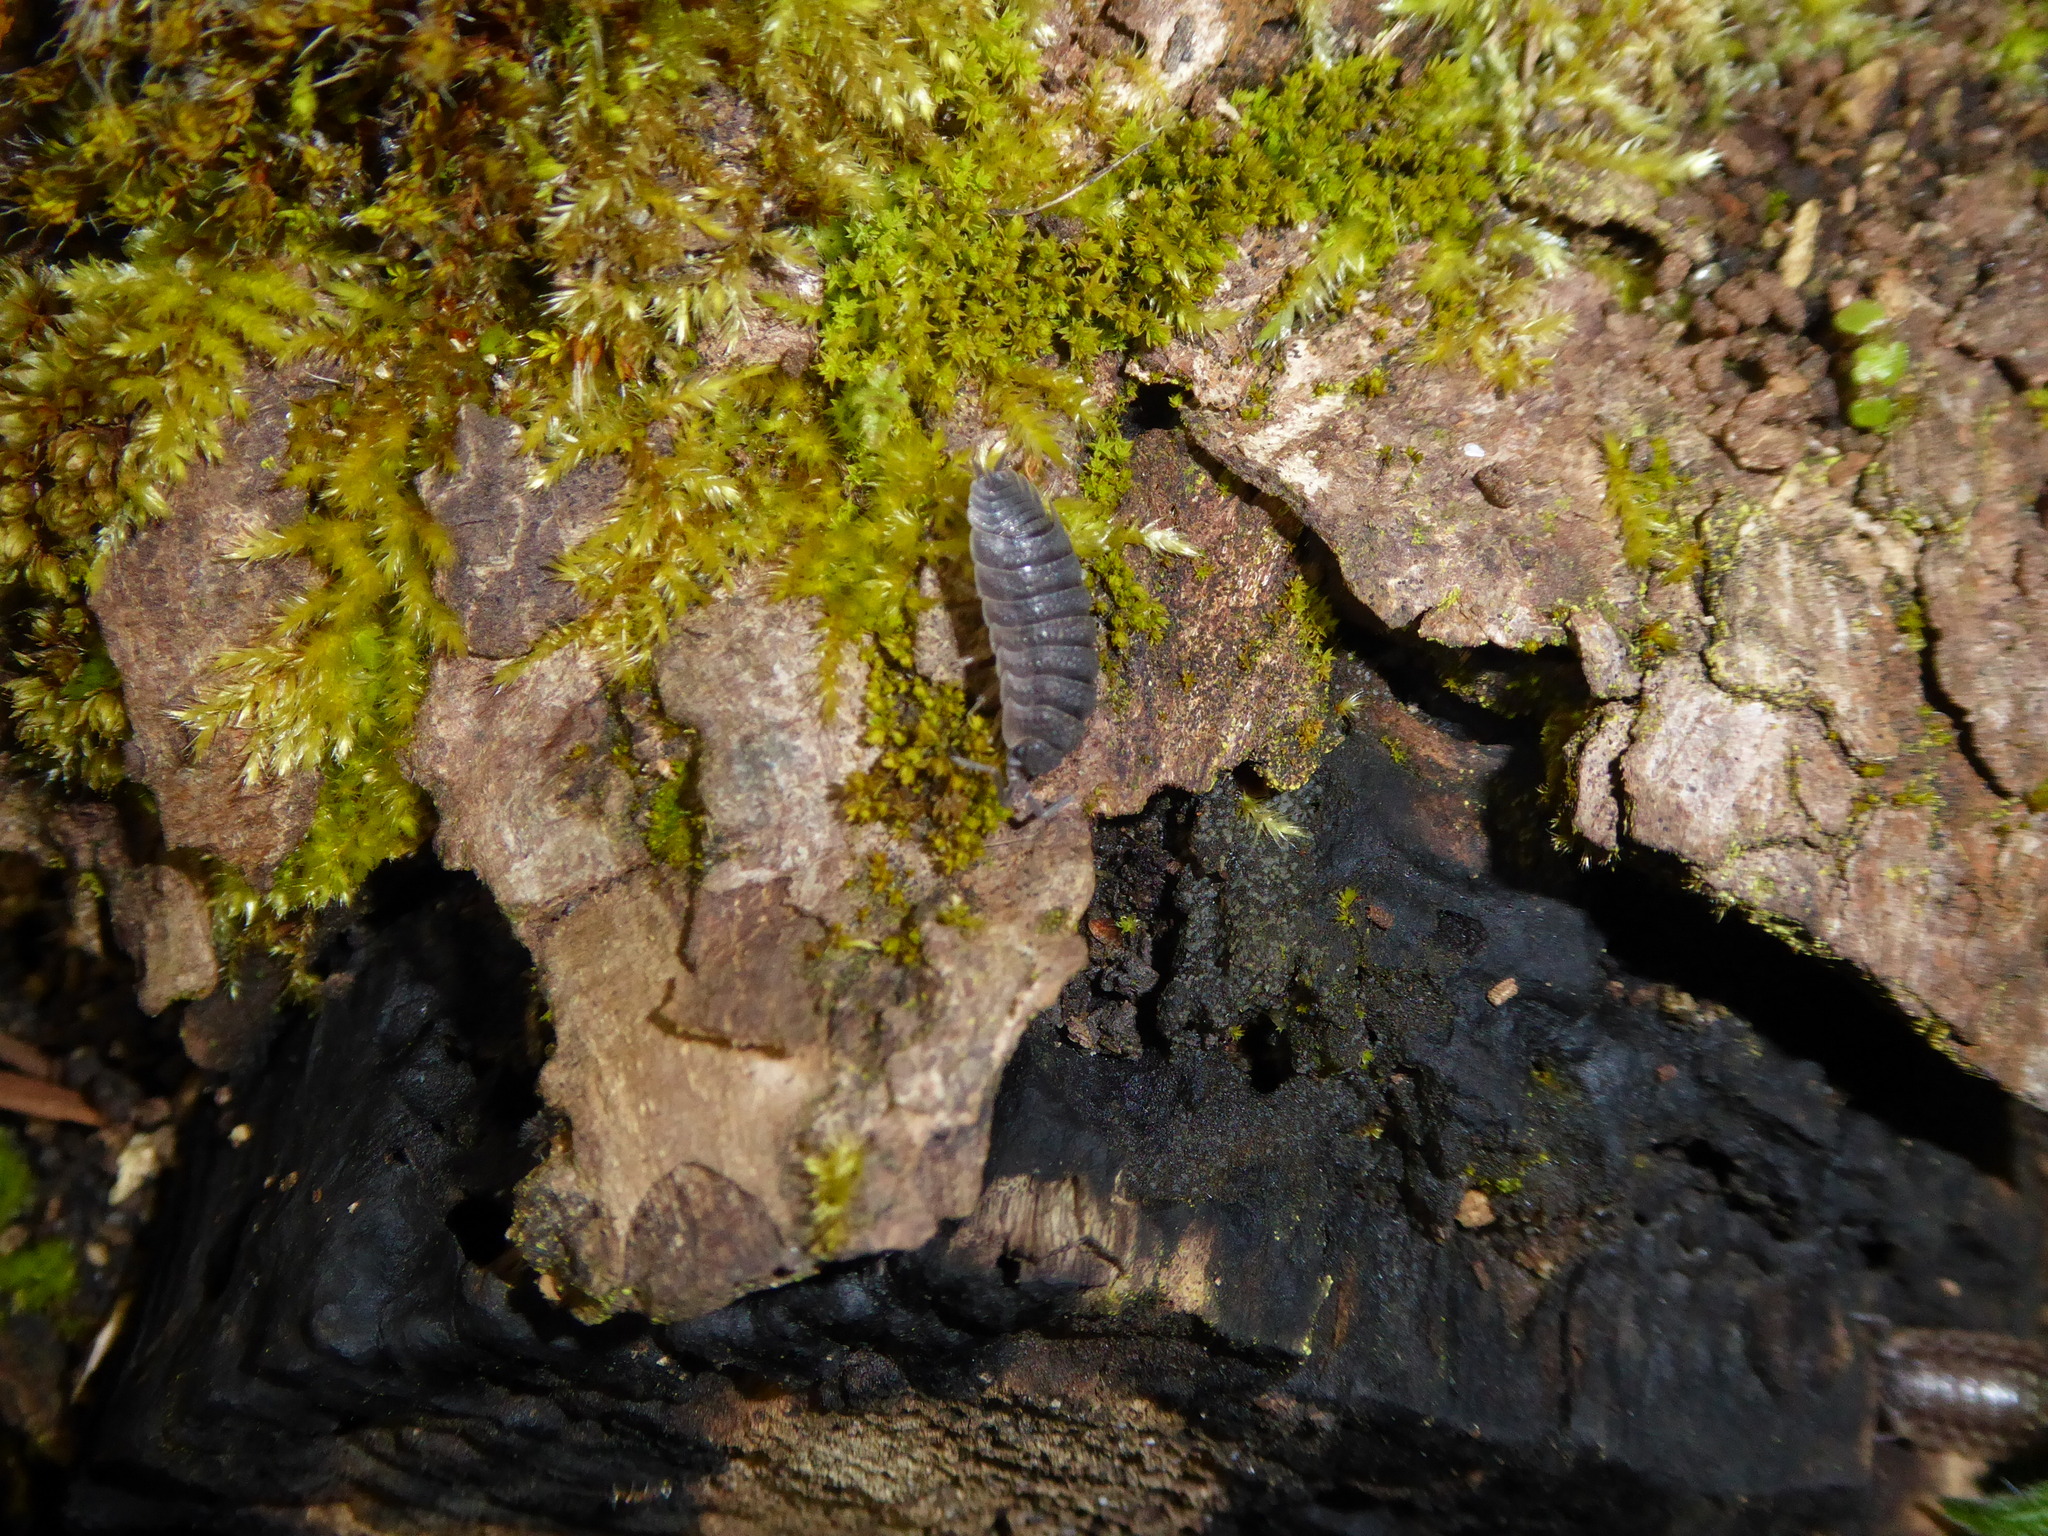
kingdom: Animalia
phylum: Arthropoda
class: Malacostraca
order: Isopoda
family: Porcellionidae
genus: Porcellio
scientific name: Porcellio scaber
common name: Common rough woodlouse
